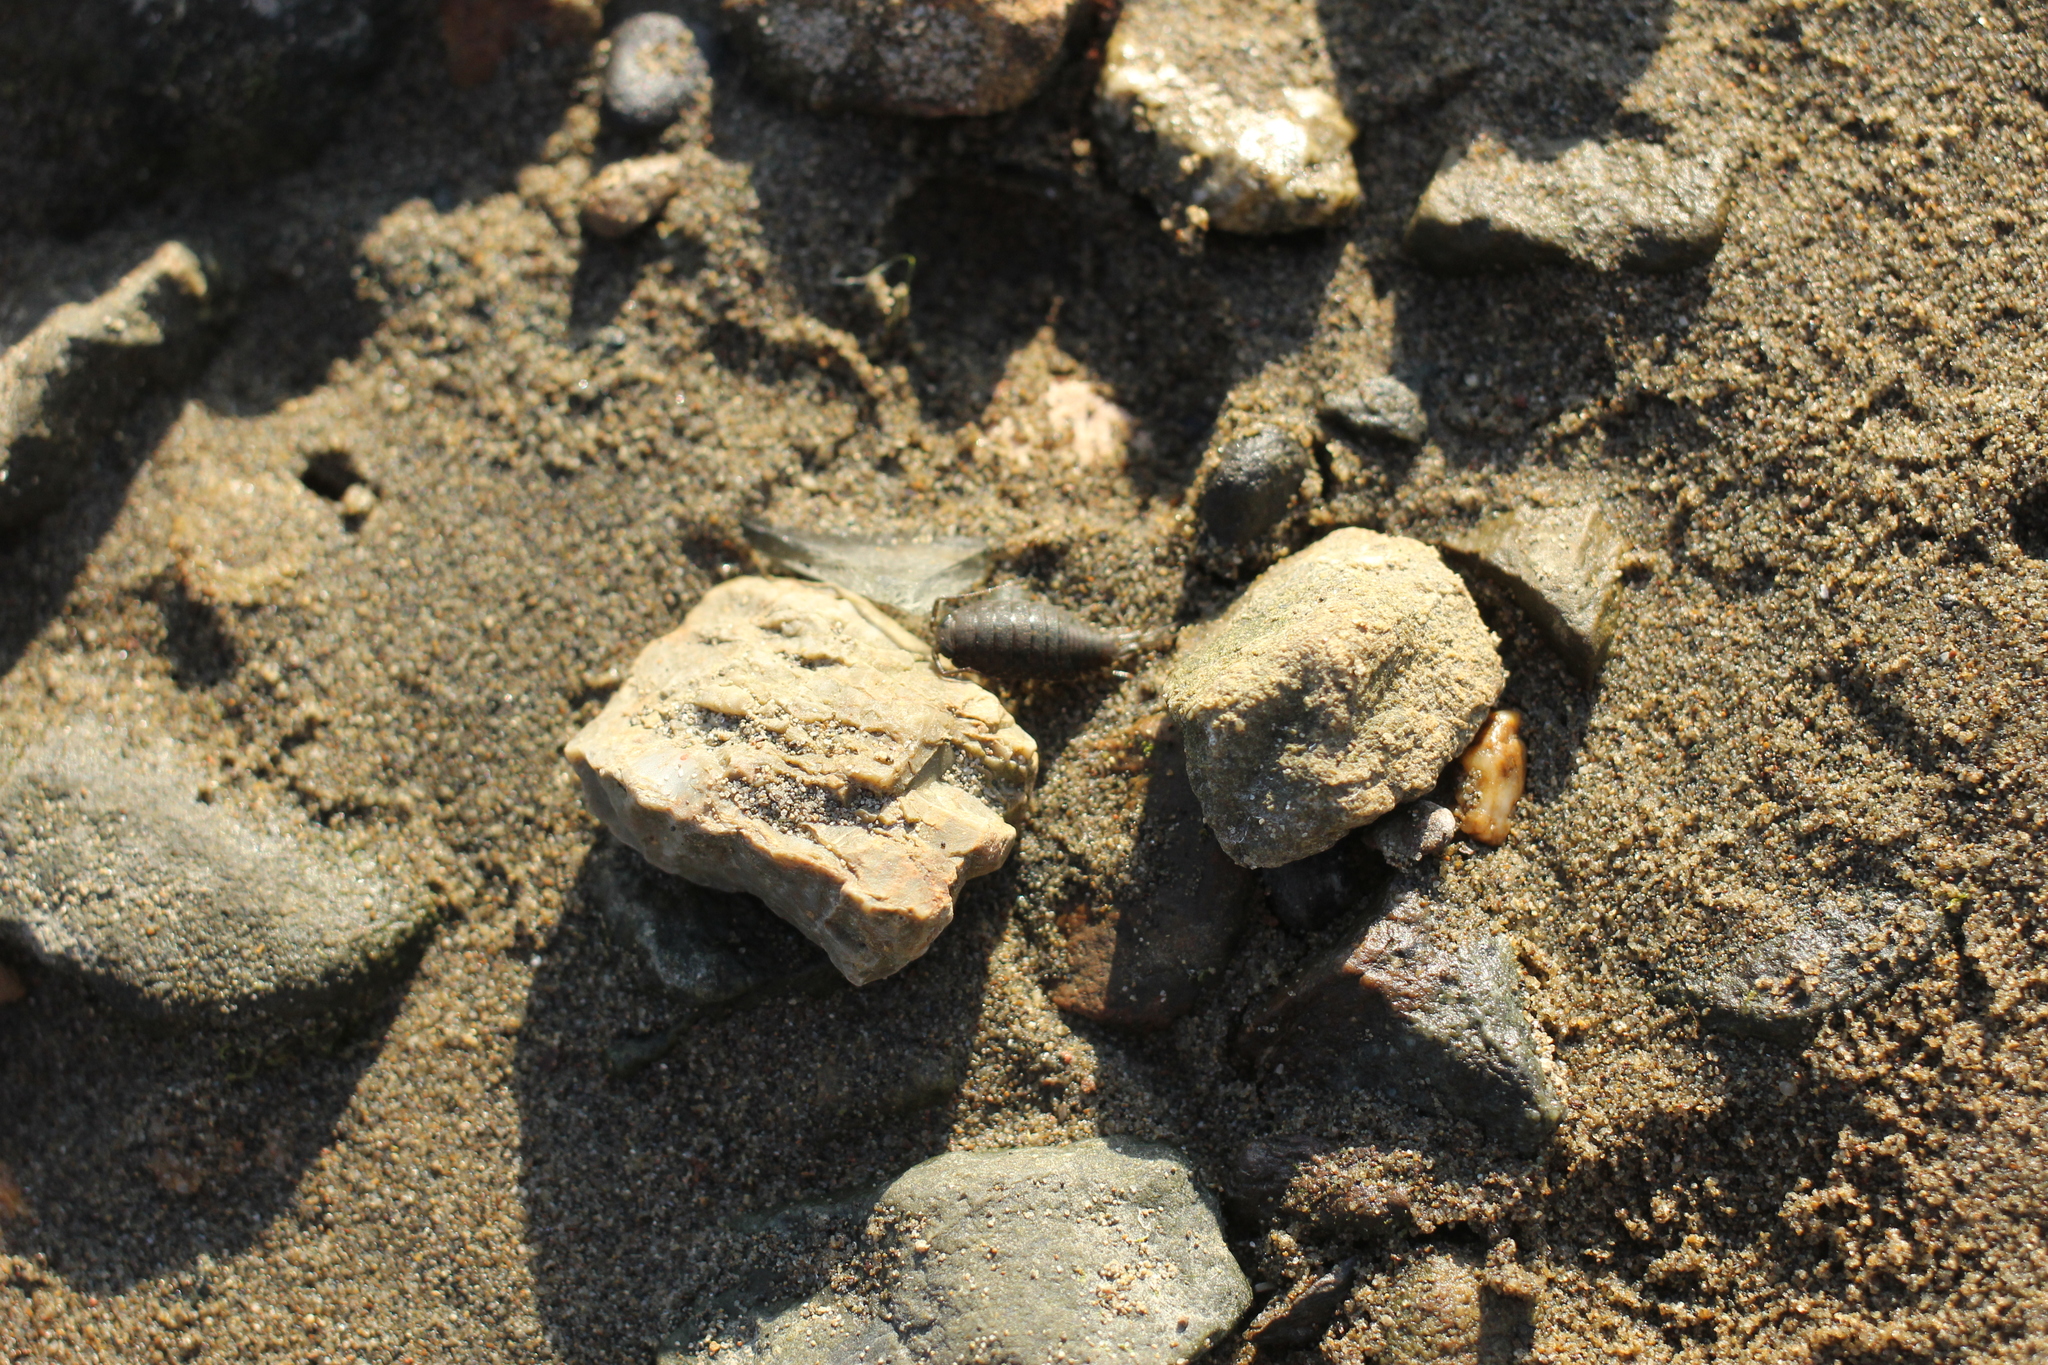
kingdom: Animalia
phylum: Arthropoda
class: Malacostraca
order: Isopoda
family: Ligiidae
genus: Ligia
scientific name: Ligia occidentalis
